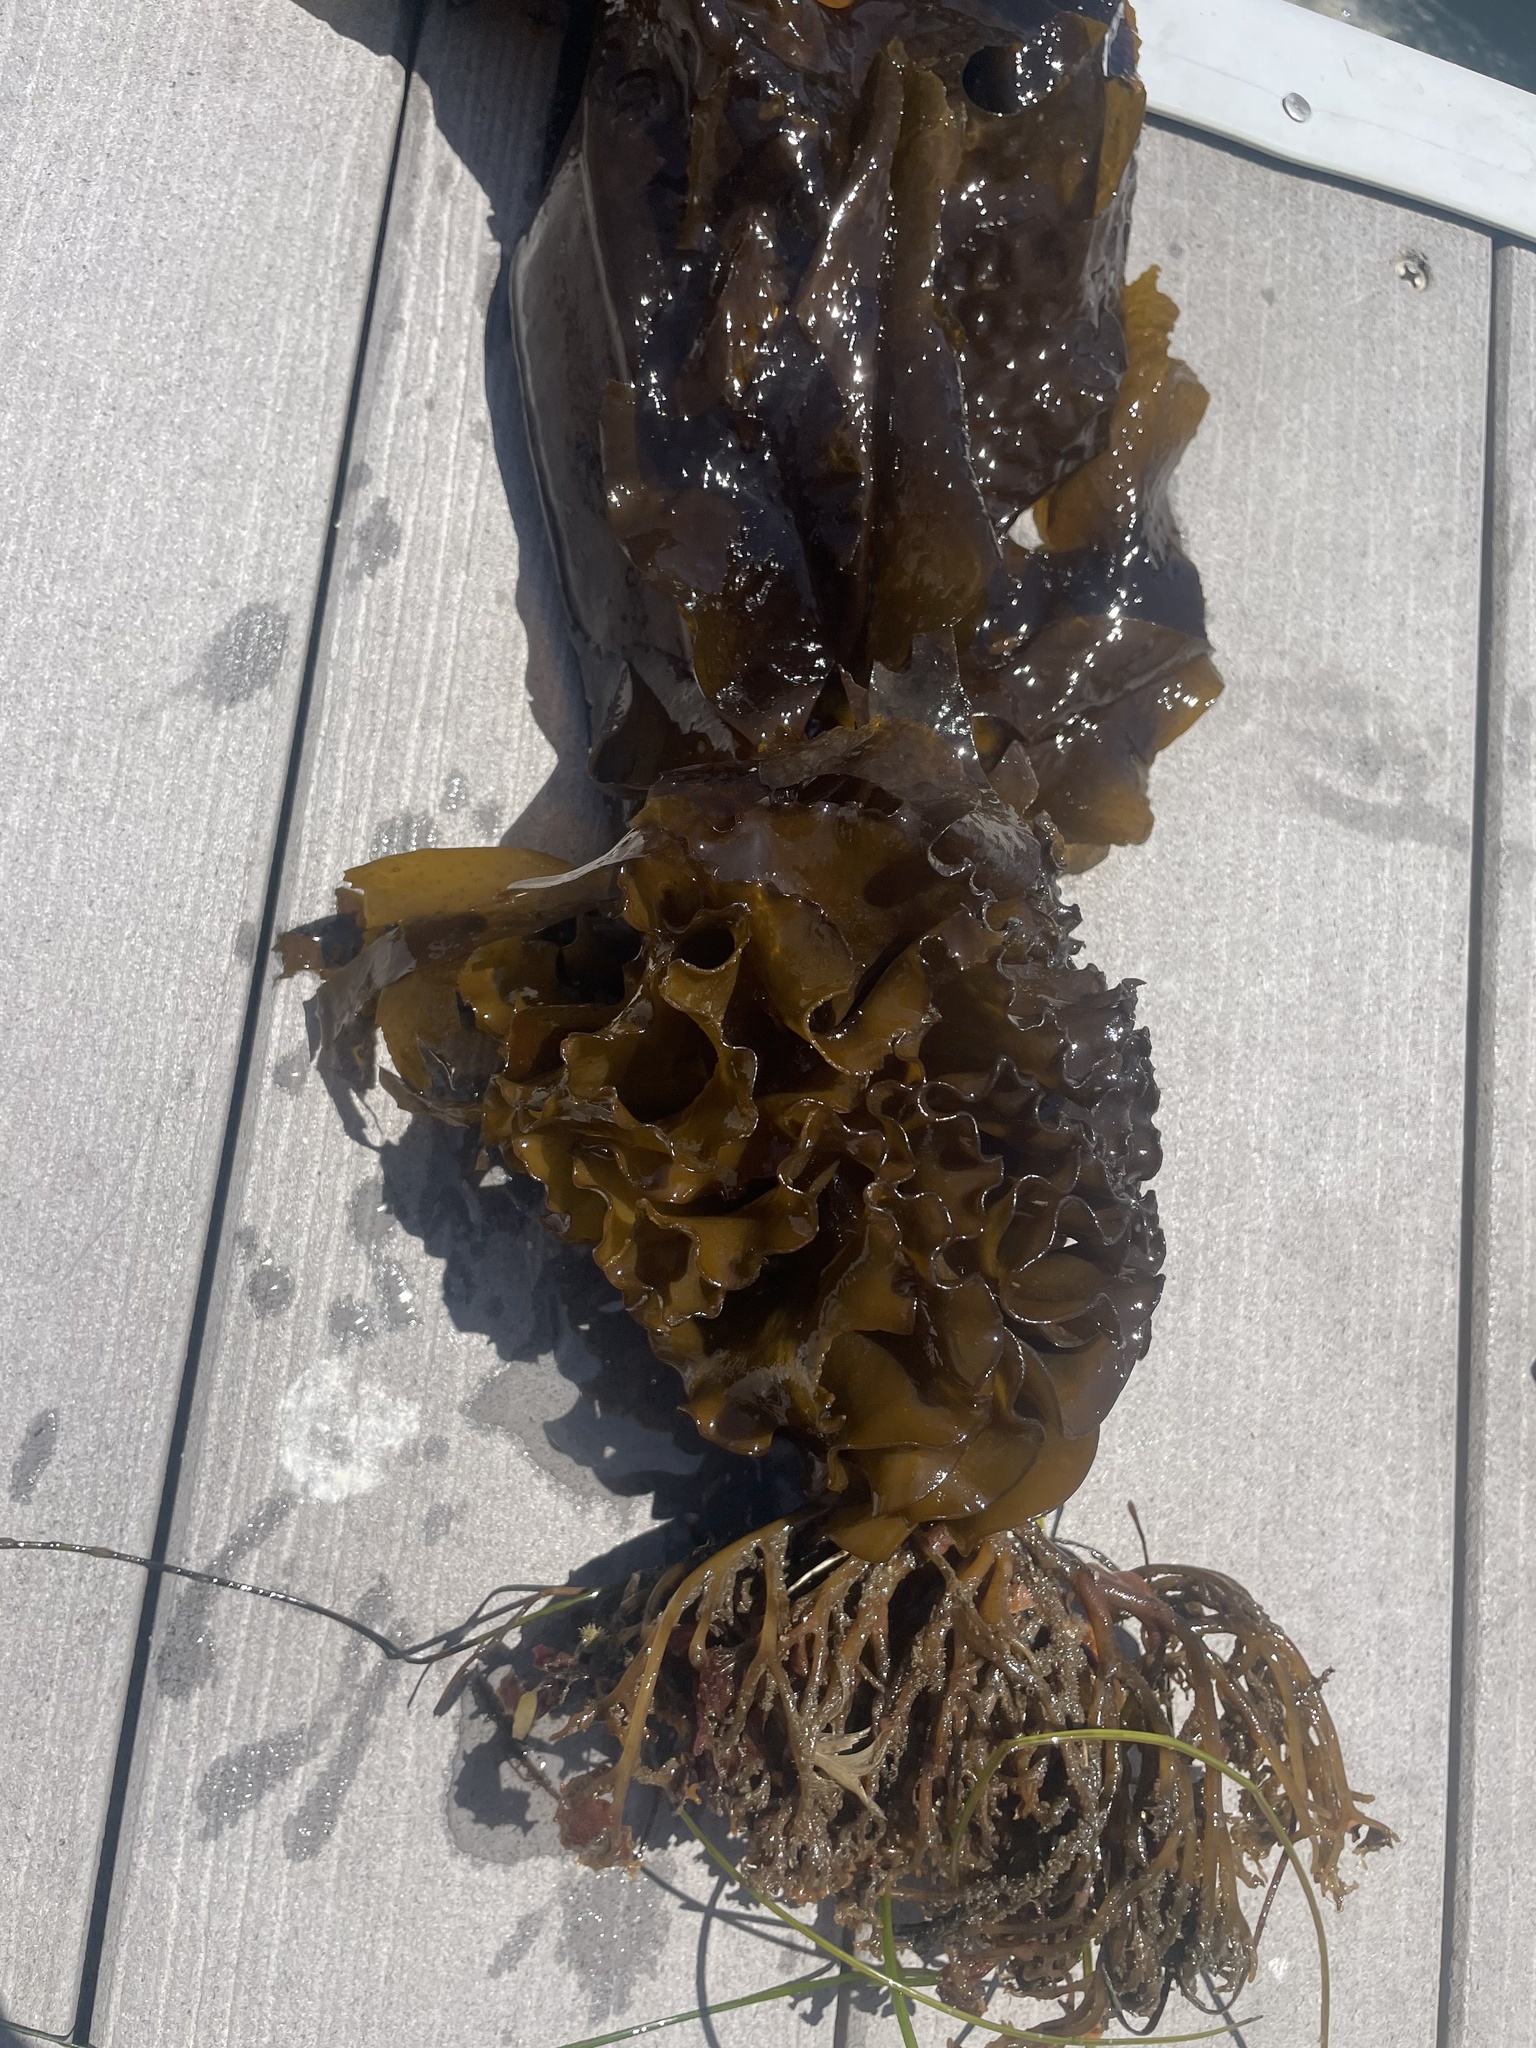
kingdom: Chromista
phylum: Ochrophyta
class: Phaeophyceae
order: Laminariales
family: Alariaceae
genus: Undaria
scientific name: Undaria pinnatifida
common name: Asian kelp
